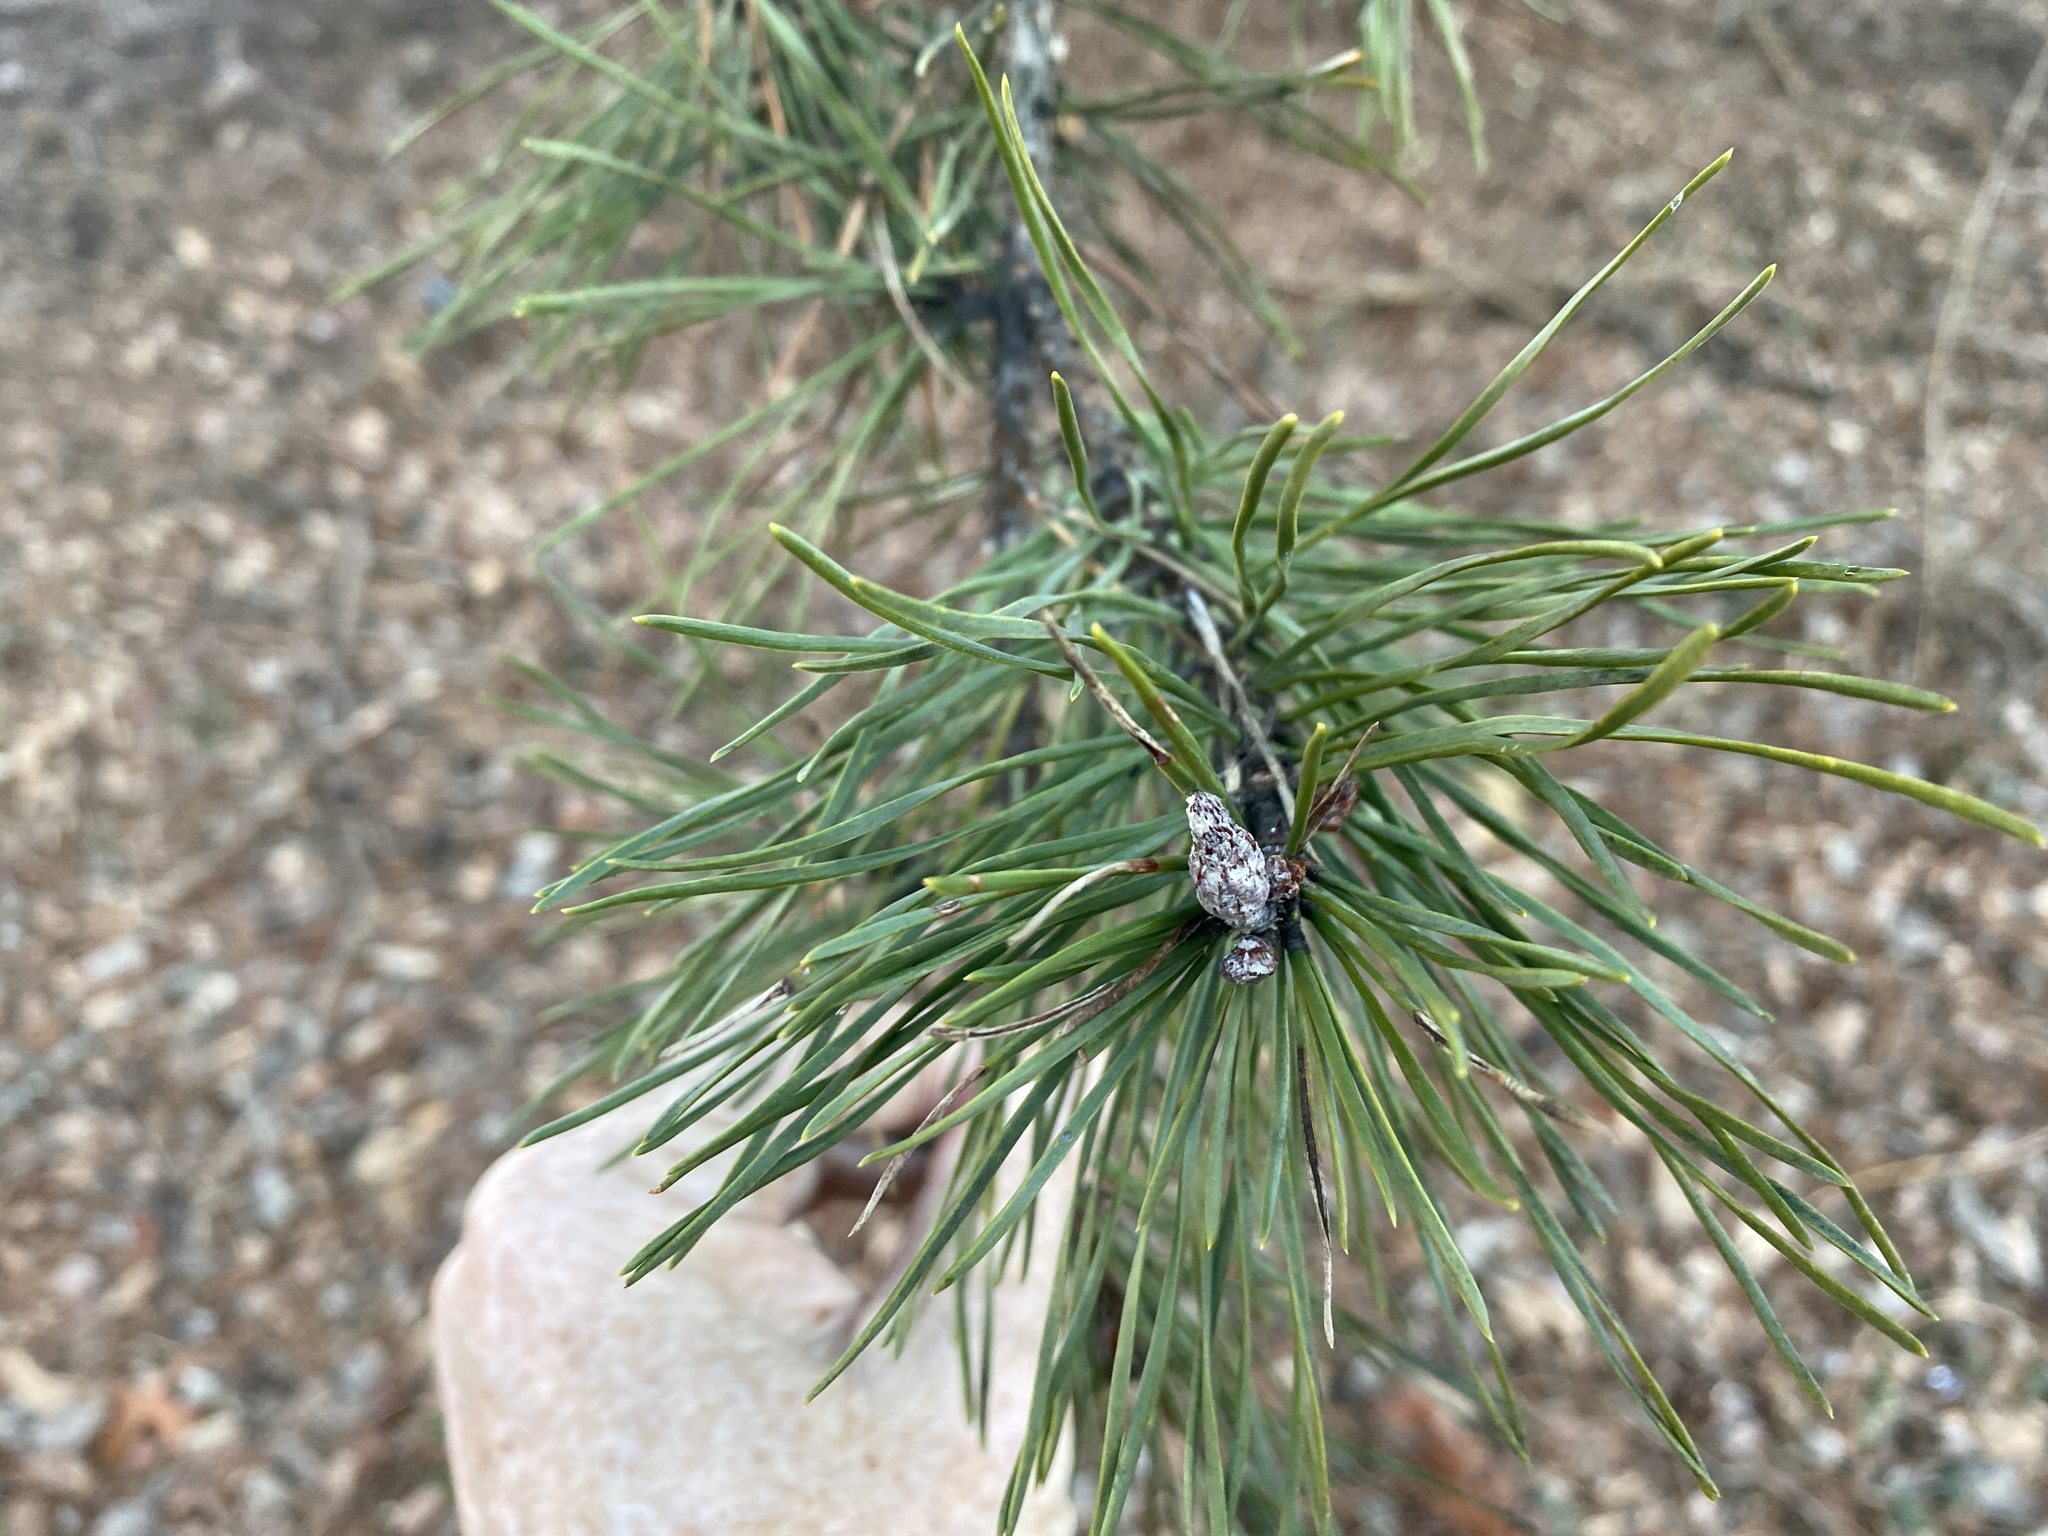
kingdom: Plantae
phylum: Tracheophyta
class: Pinopsida
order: Pinales
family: Pinaceae
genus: Pinus
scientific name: Pinus virginiana
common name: Scrub pine
